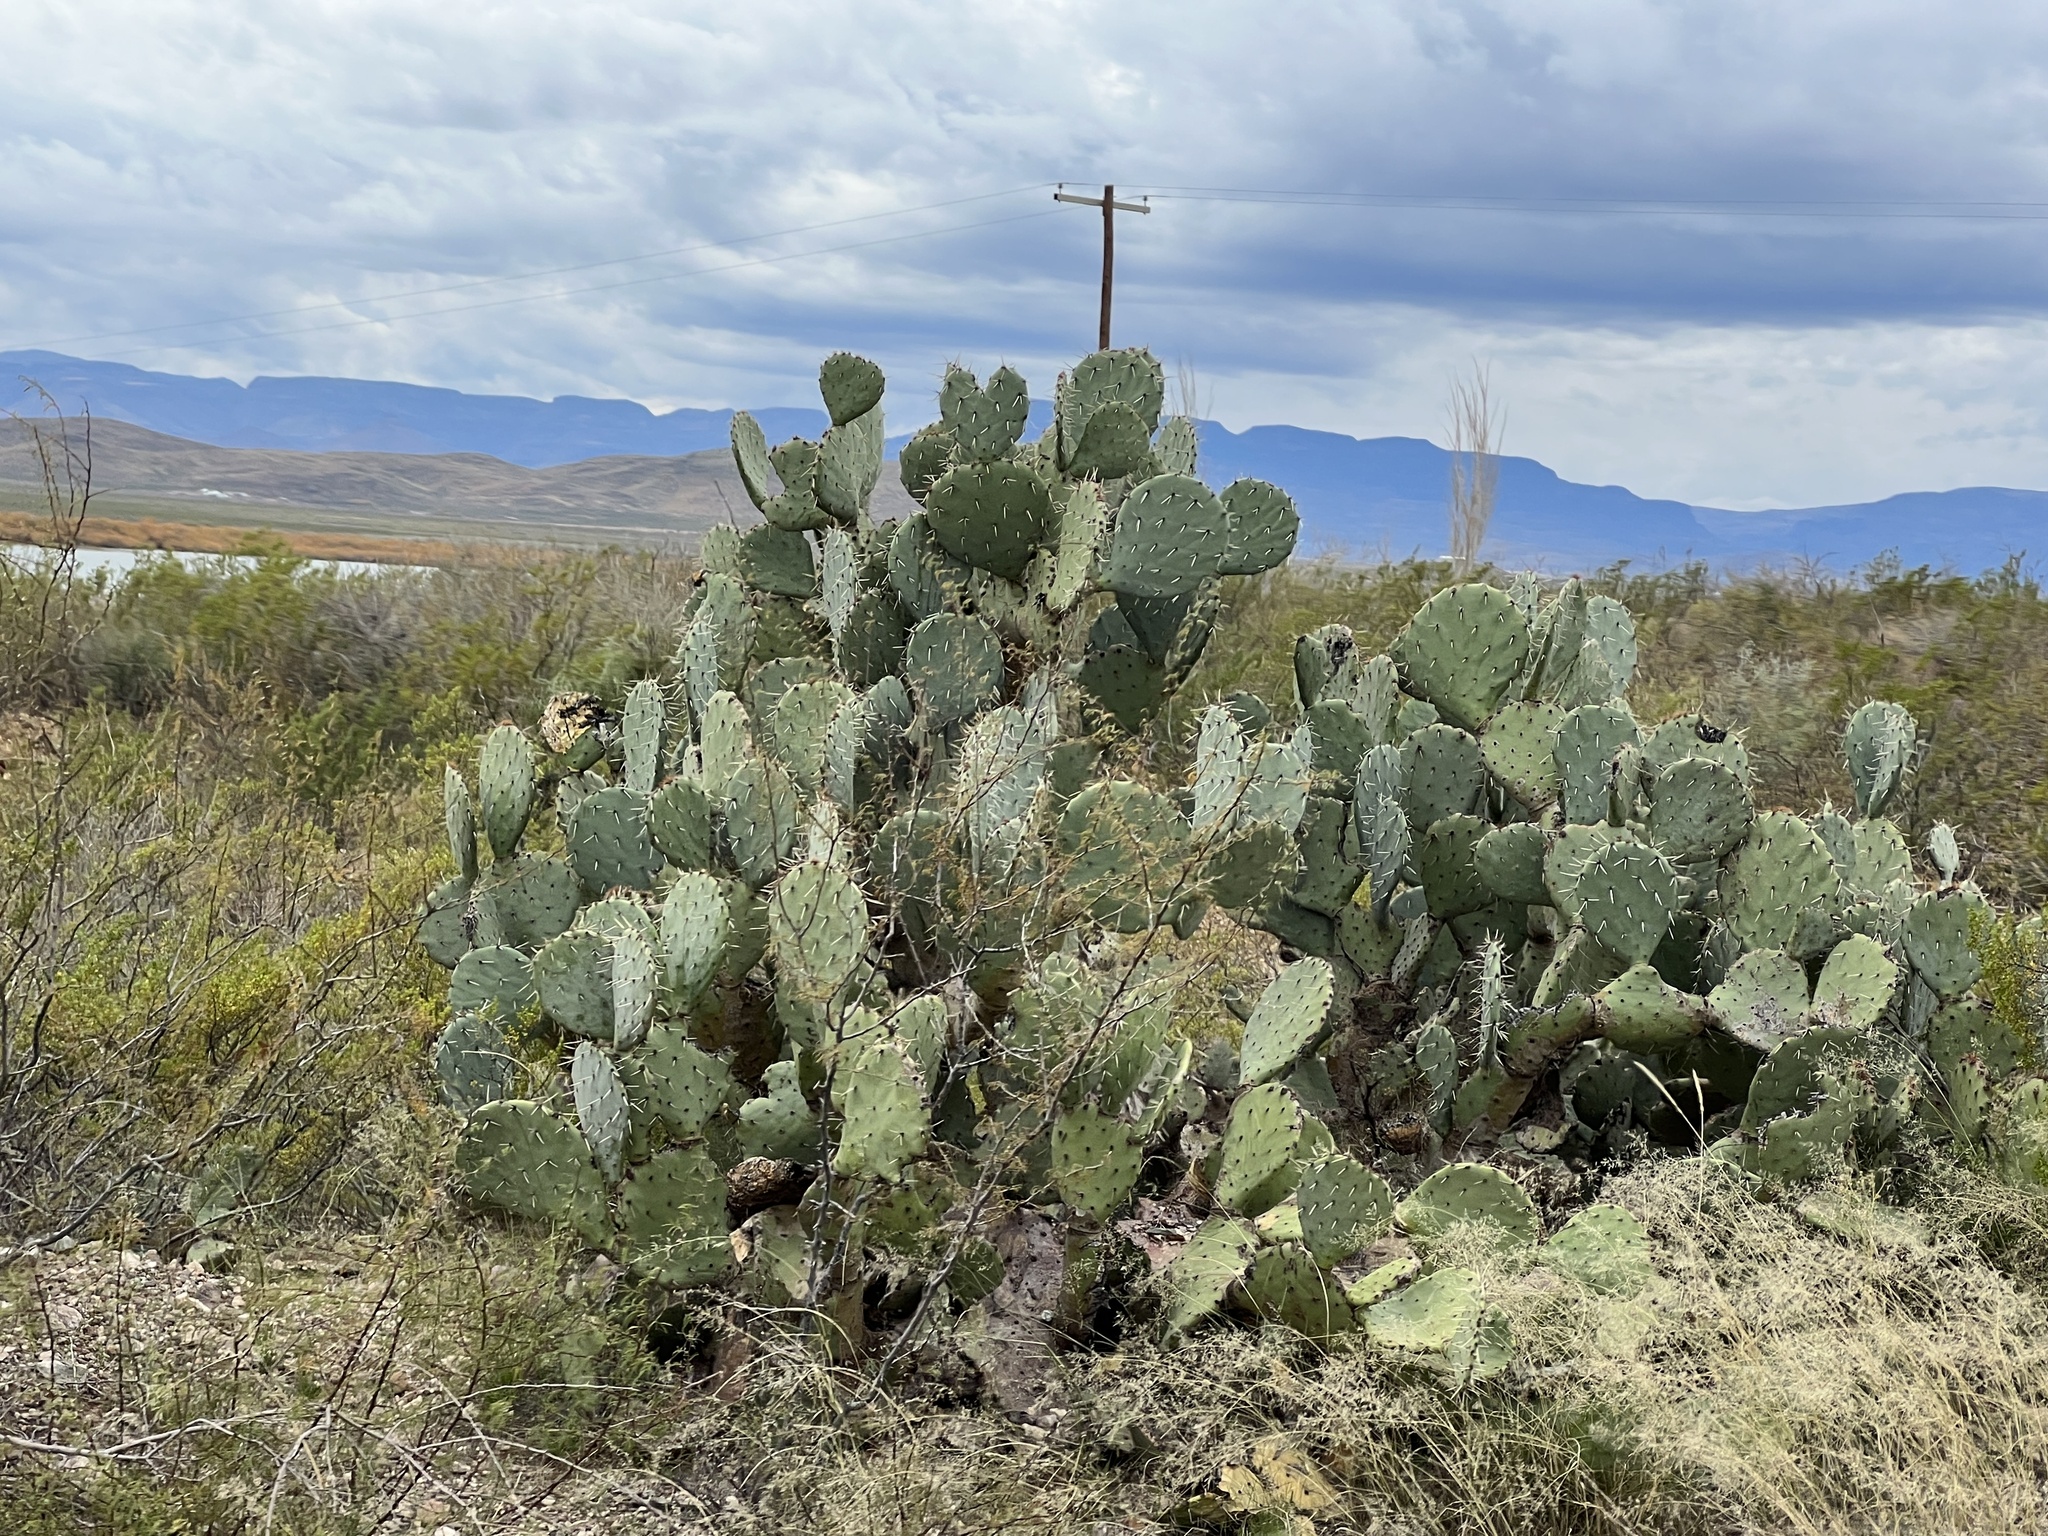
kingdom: Plantae
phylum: Tracheophyta
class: Magnoliopsida
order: Caryophyllales
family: Cactaceae
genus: Opuntia
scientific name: Opuntia engelmannii
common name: Cactus-apple
